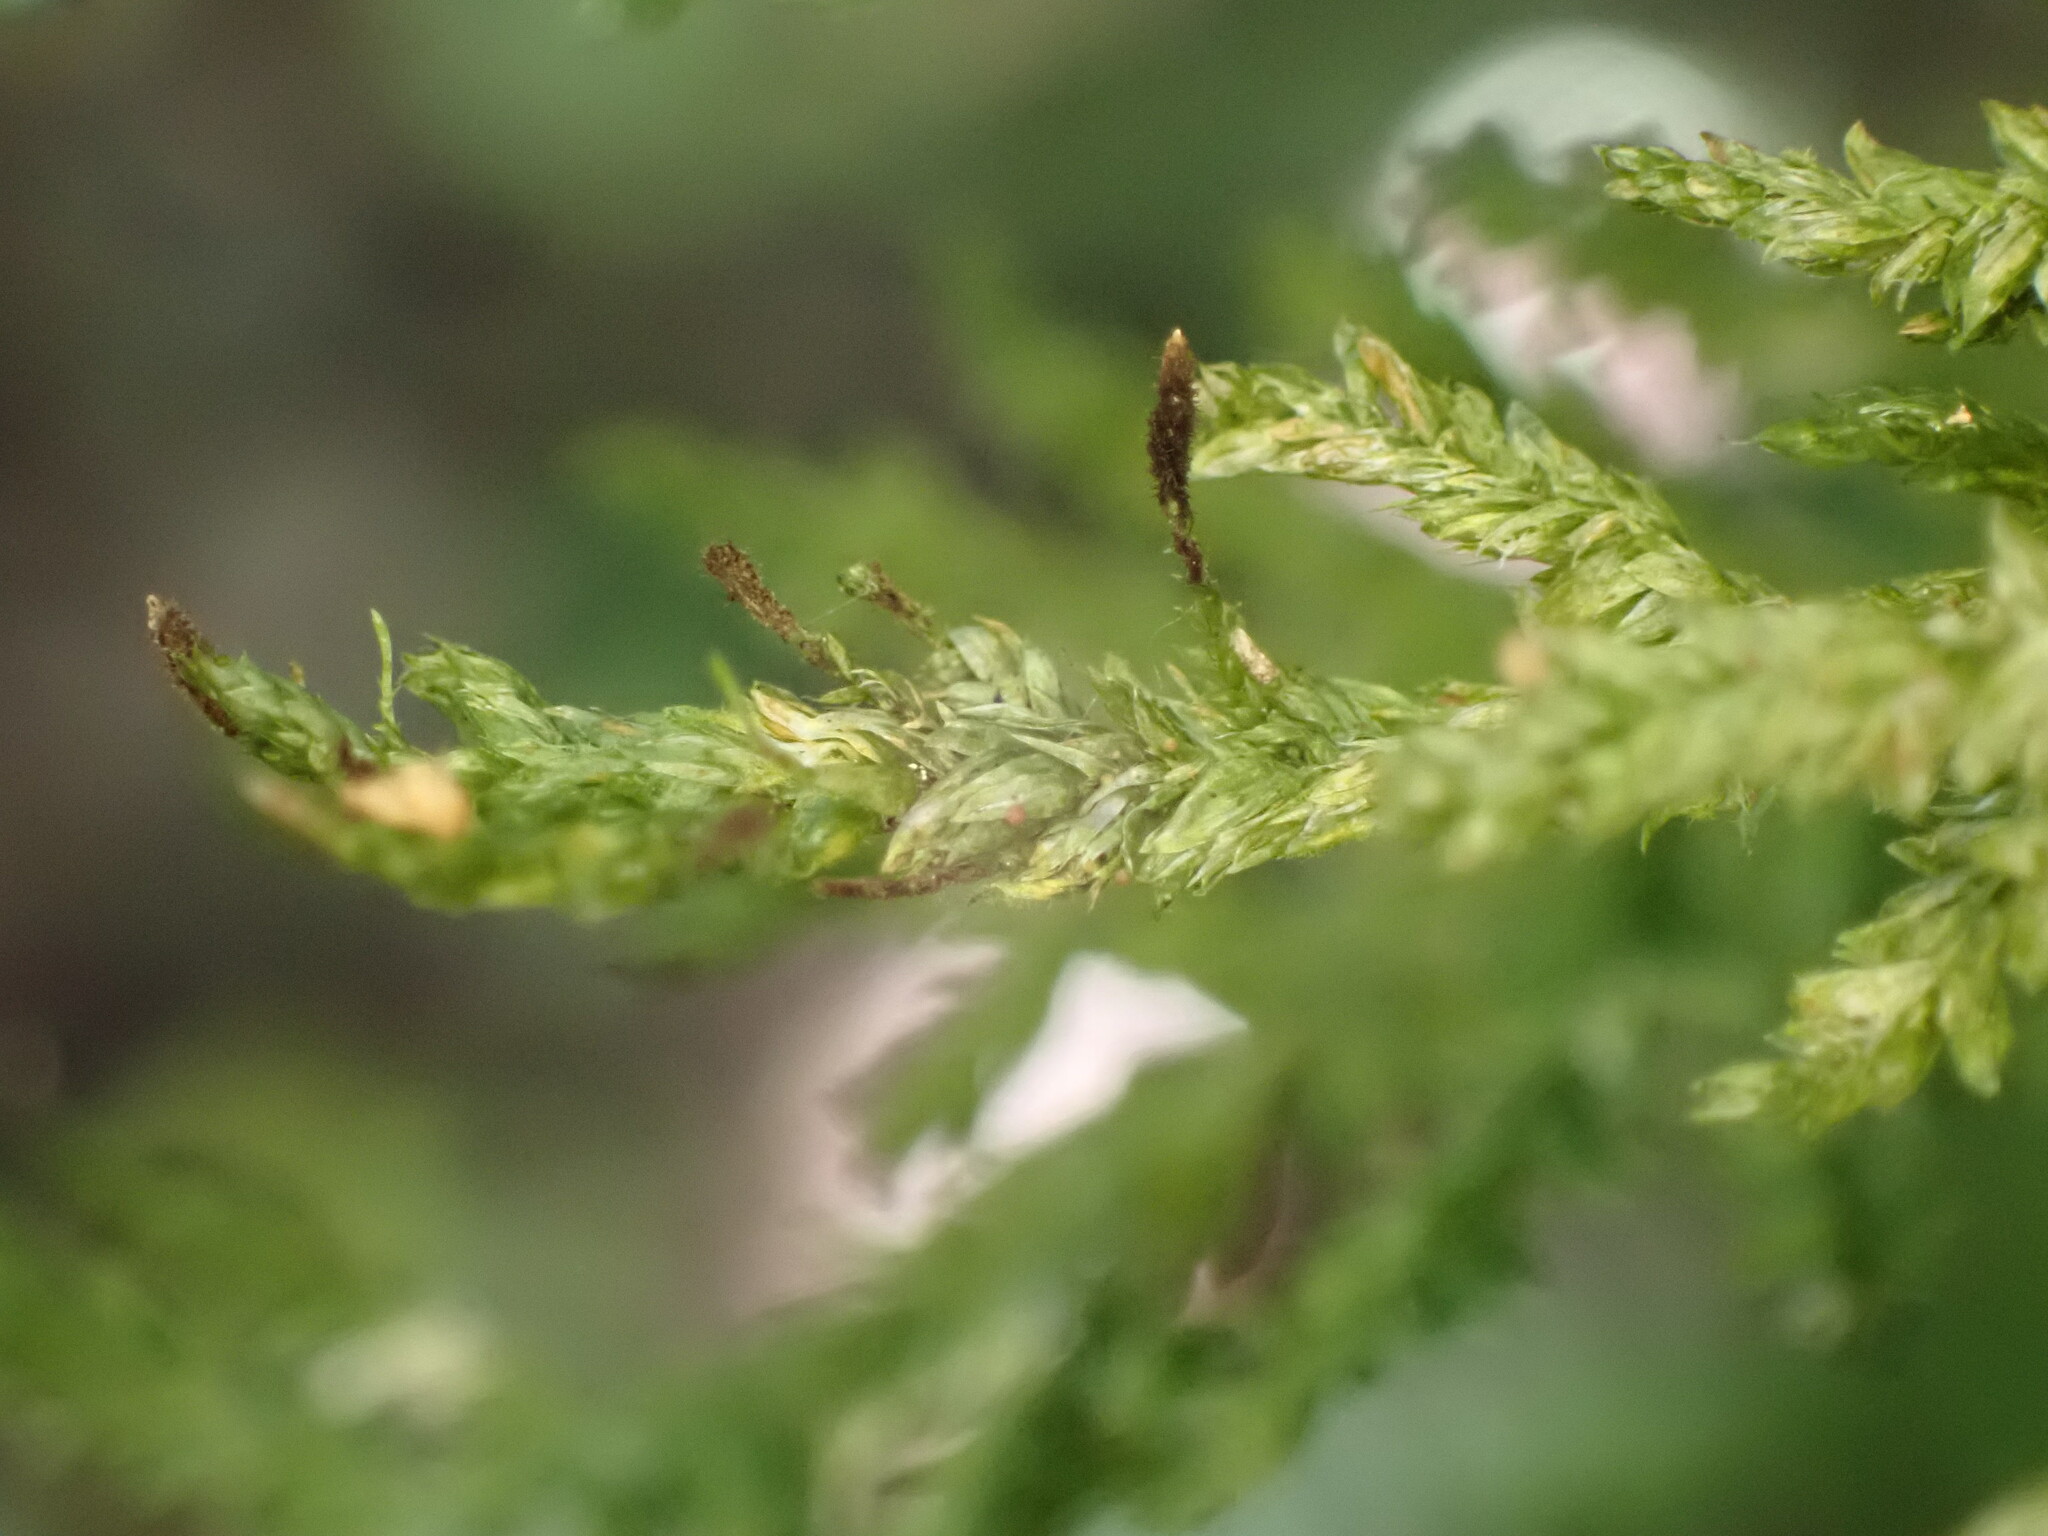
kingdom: Plantae
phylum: Bryophyta
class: Bryopsida
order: Hypnales
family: Trachylomataceae
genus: Trachyloma
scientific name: Trachyloma diversinerve
